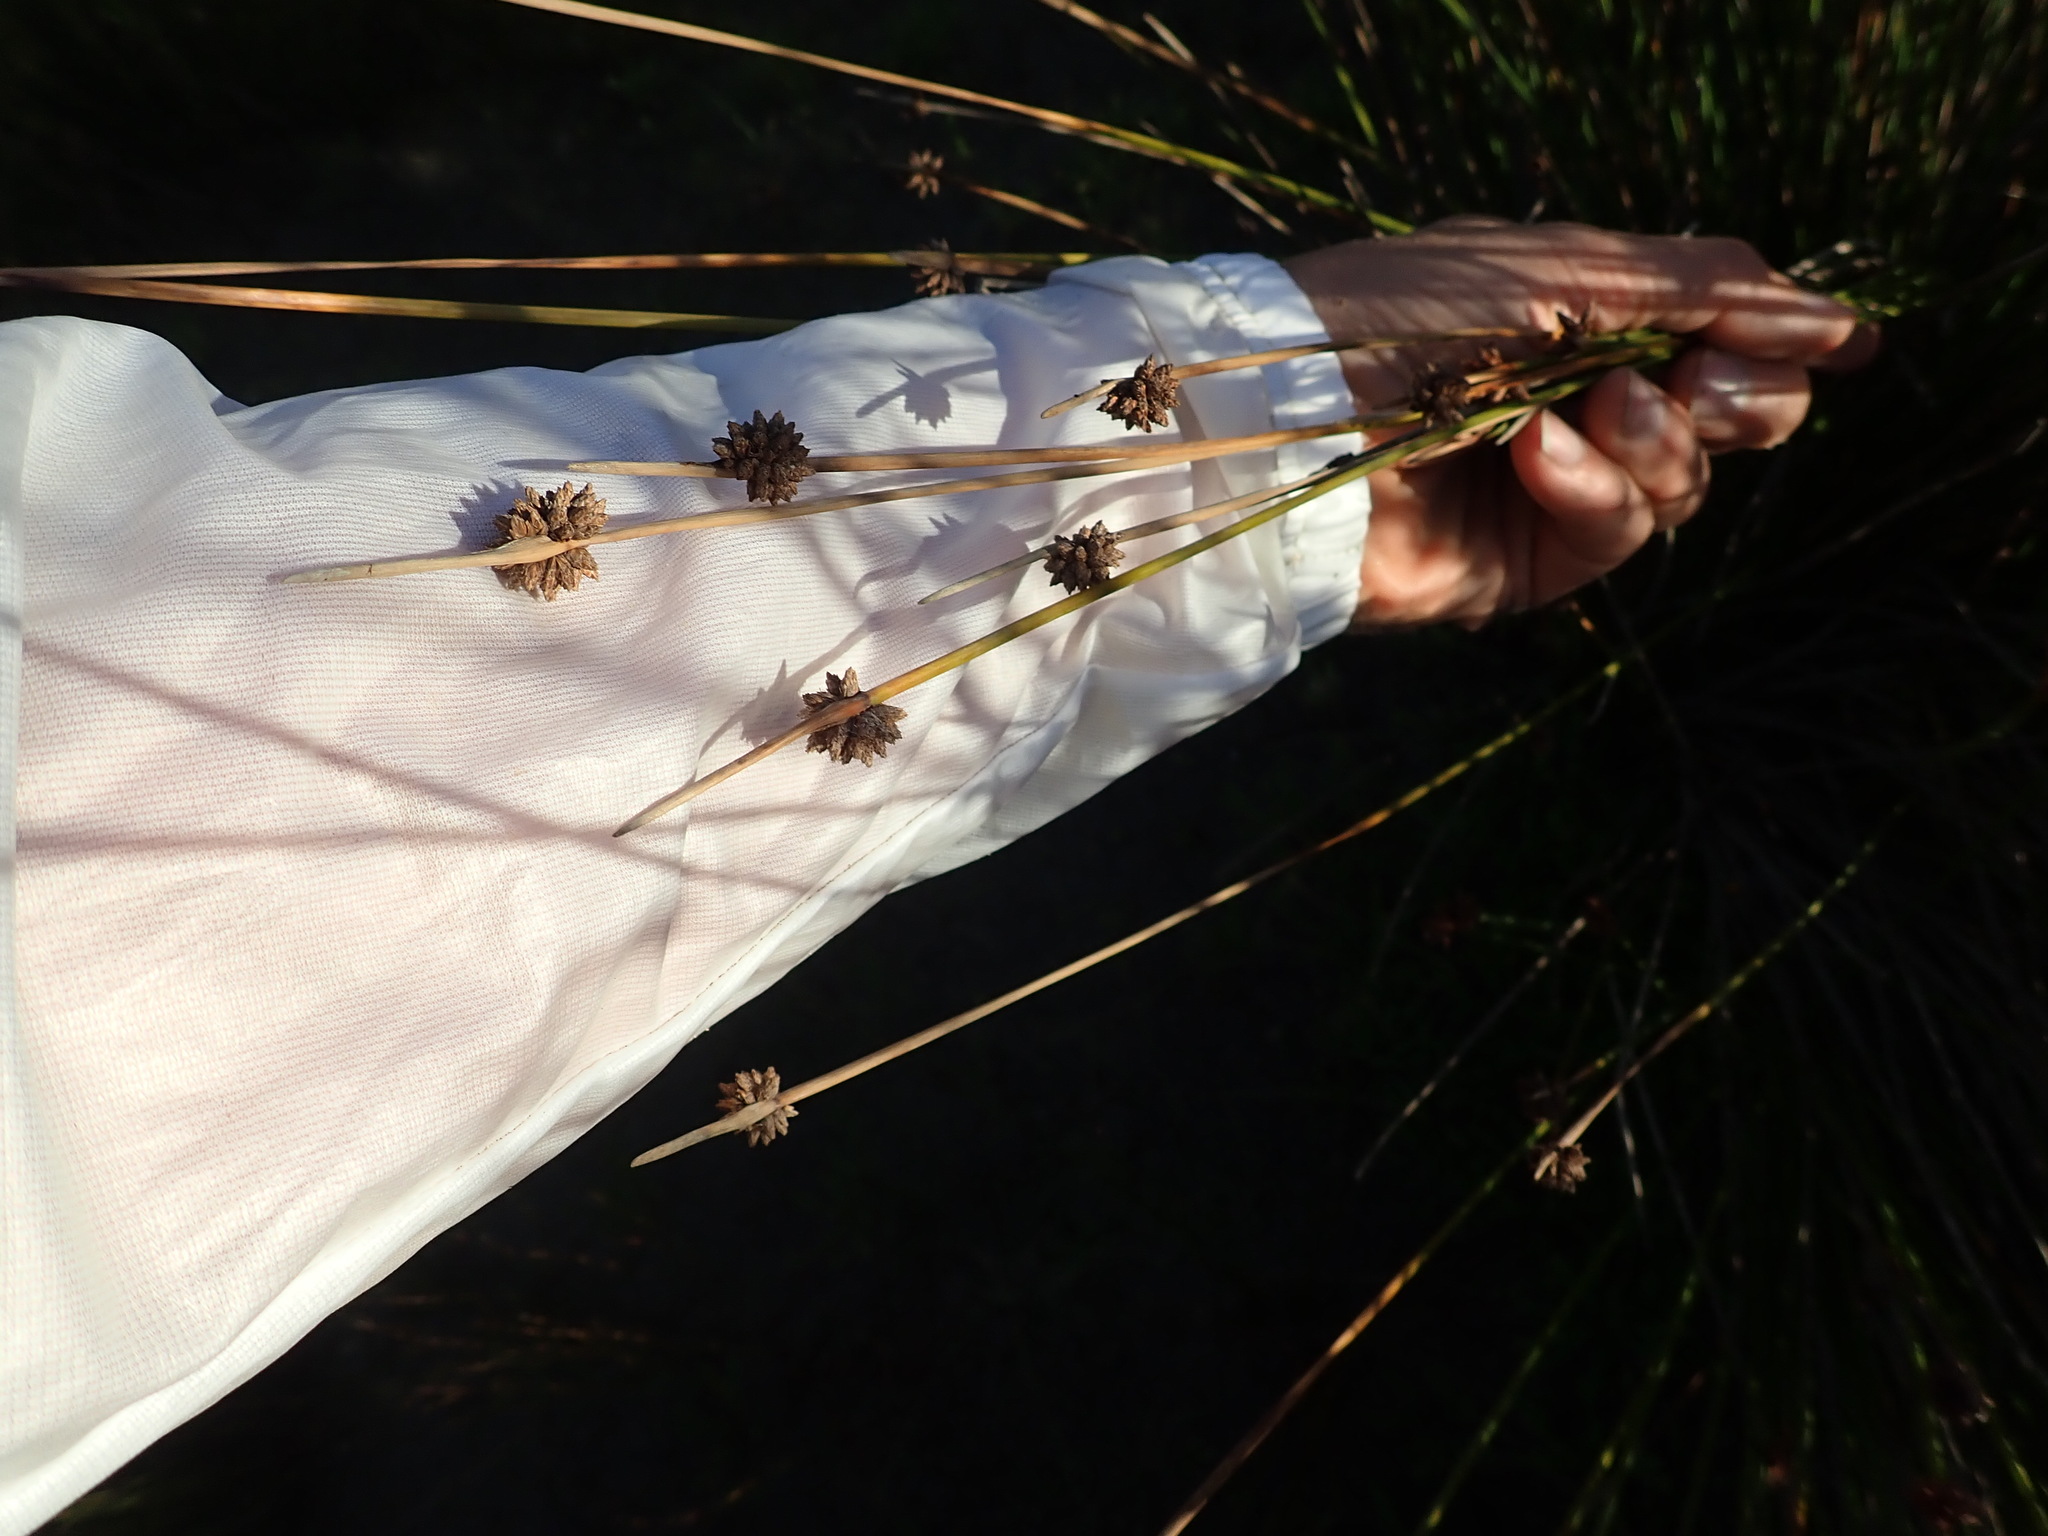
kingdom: Plantae
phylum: Tracheophyta
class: Liliopsida
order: Poales
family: Cyperaceae
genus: Ficinia
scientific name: Ficinia nodosa
